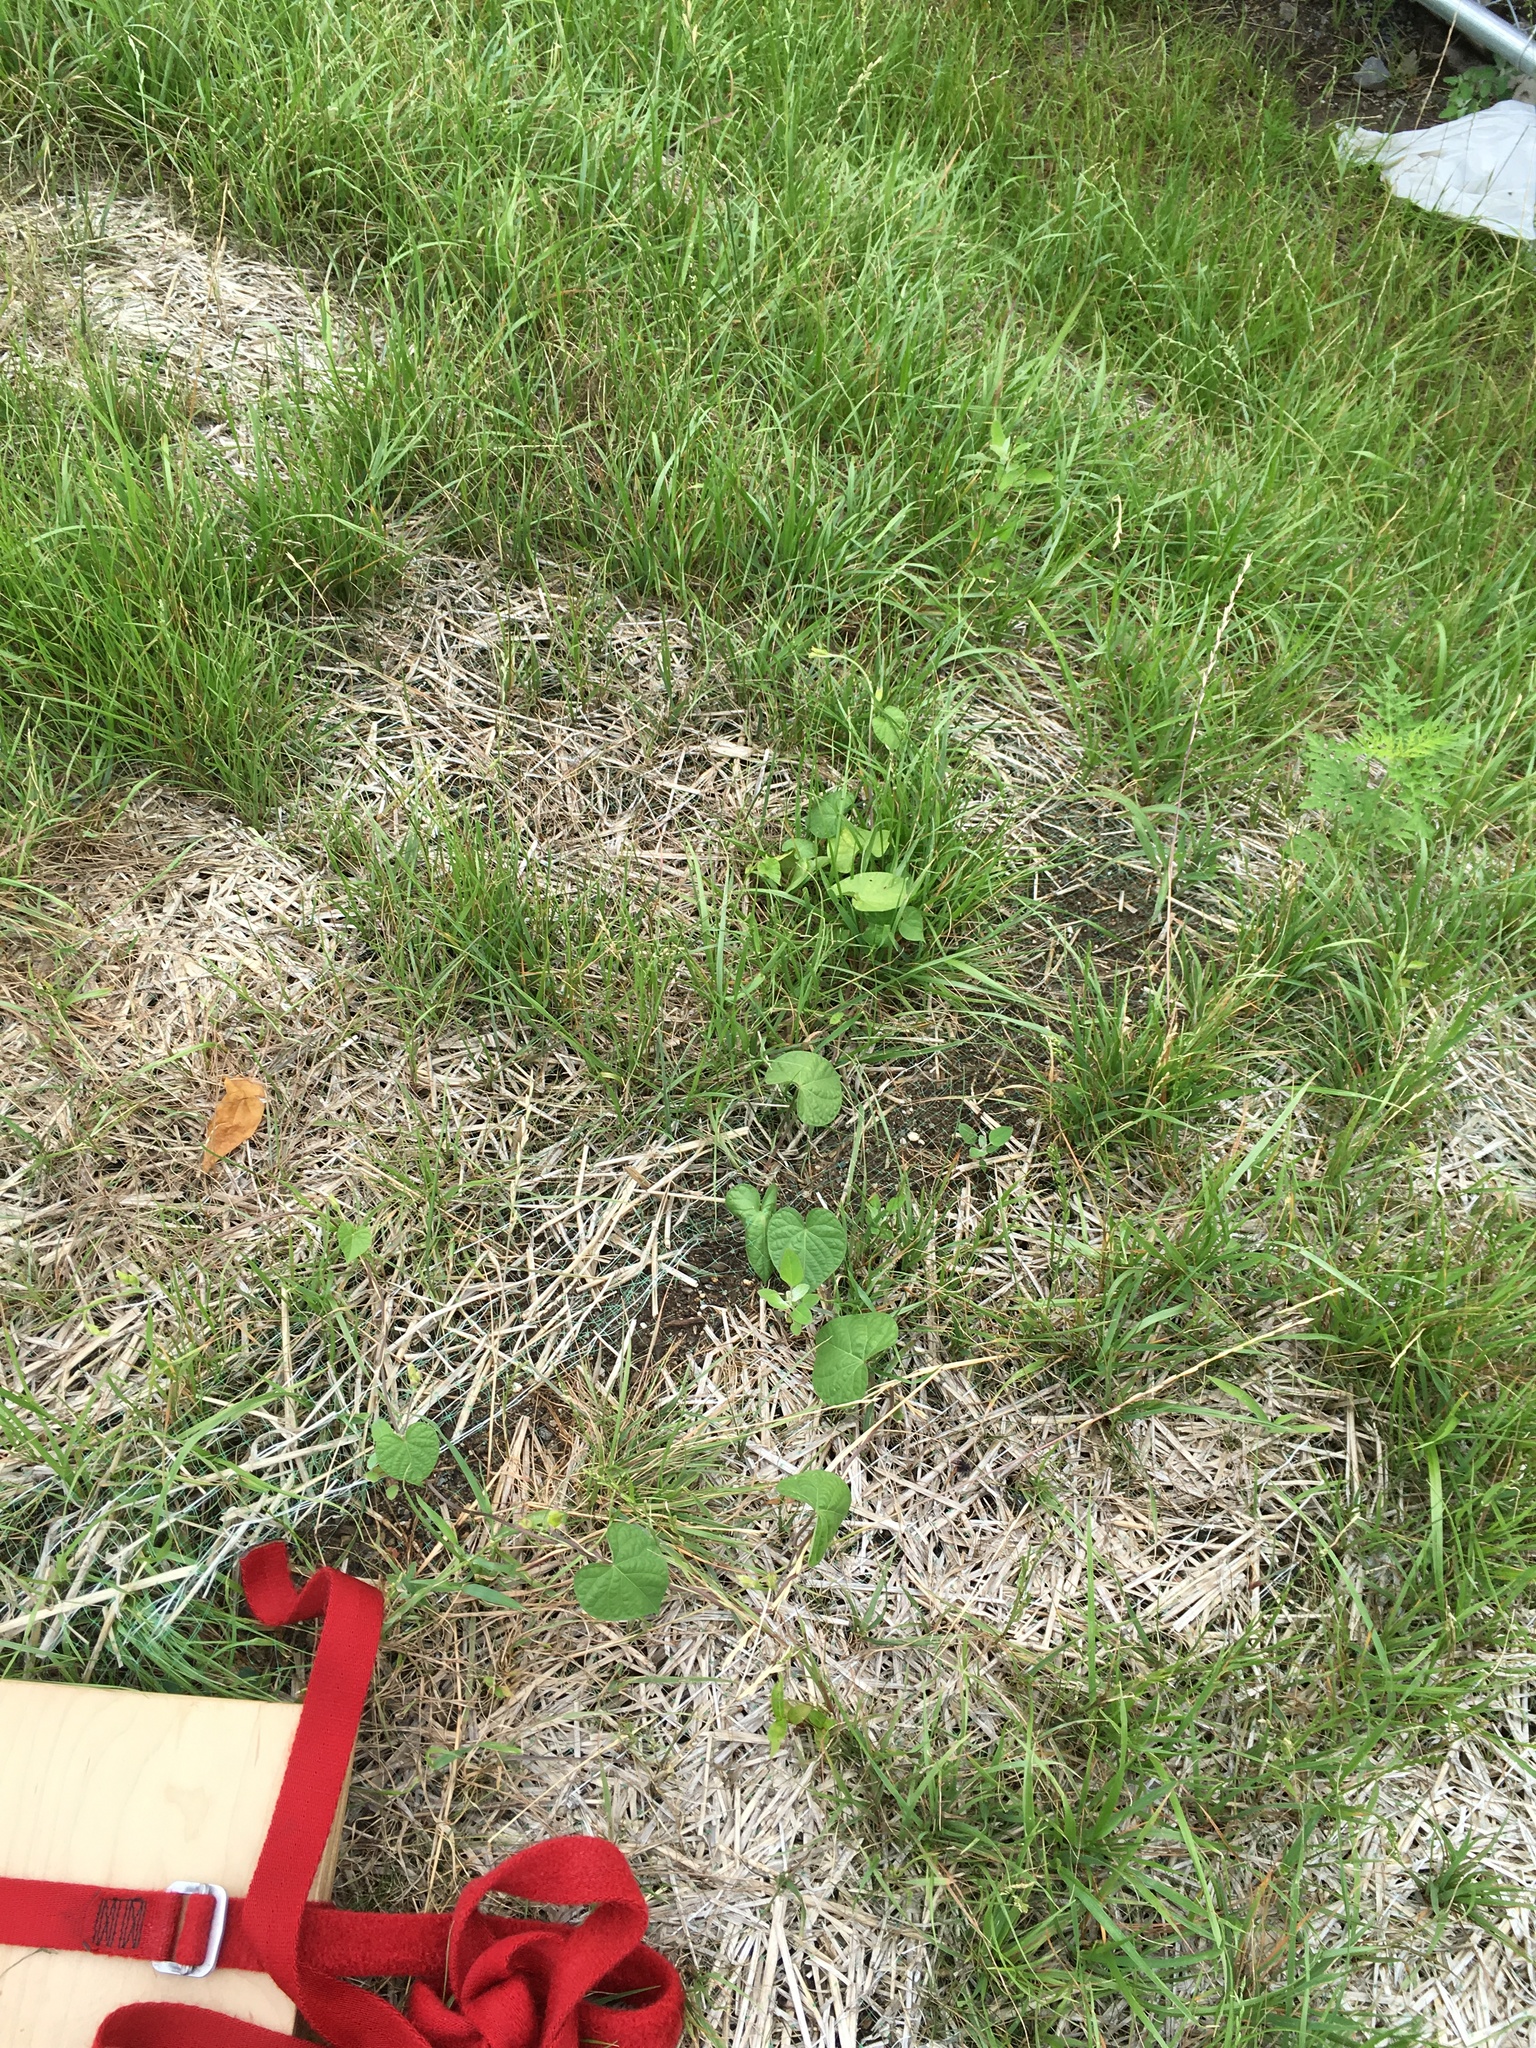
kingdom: Plantae
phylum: Tracheophyta
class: Magnoliopsida
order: Solanales
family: Convolvulaceae
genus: Ipomoea
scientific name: Ipomoea purpurea
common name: Common morning-glory
